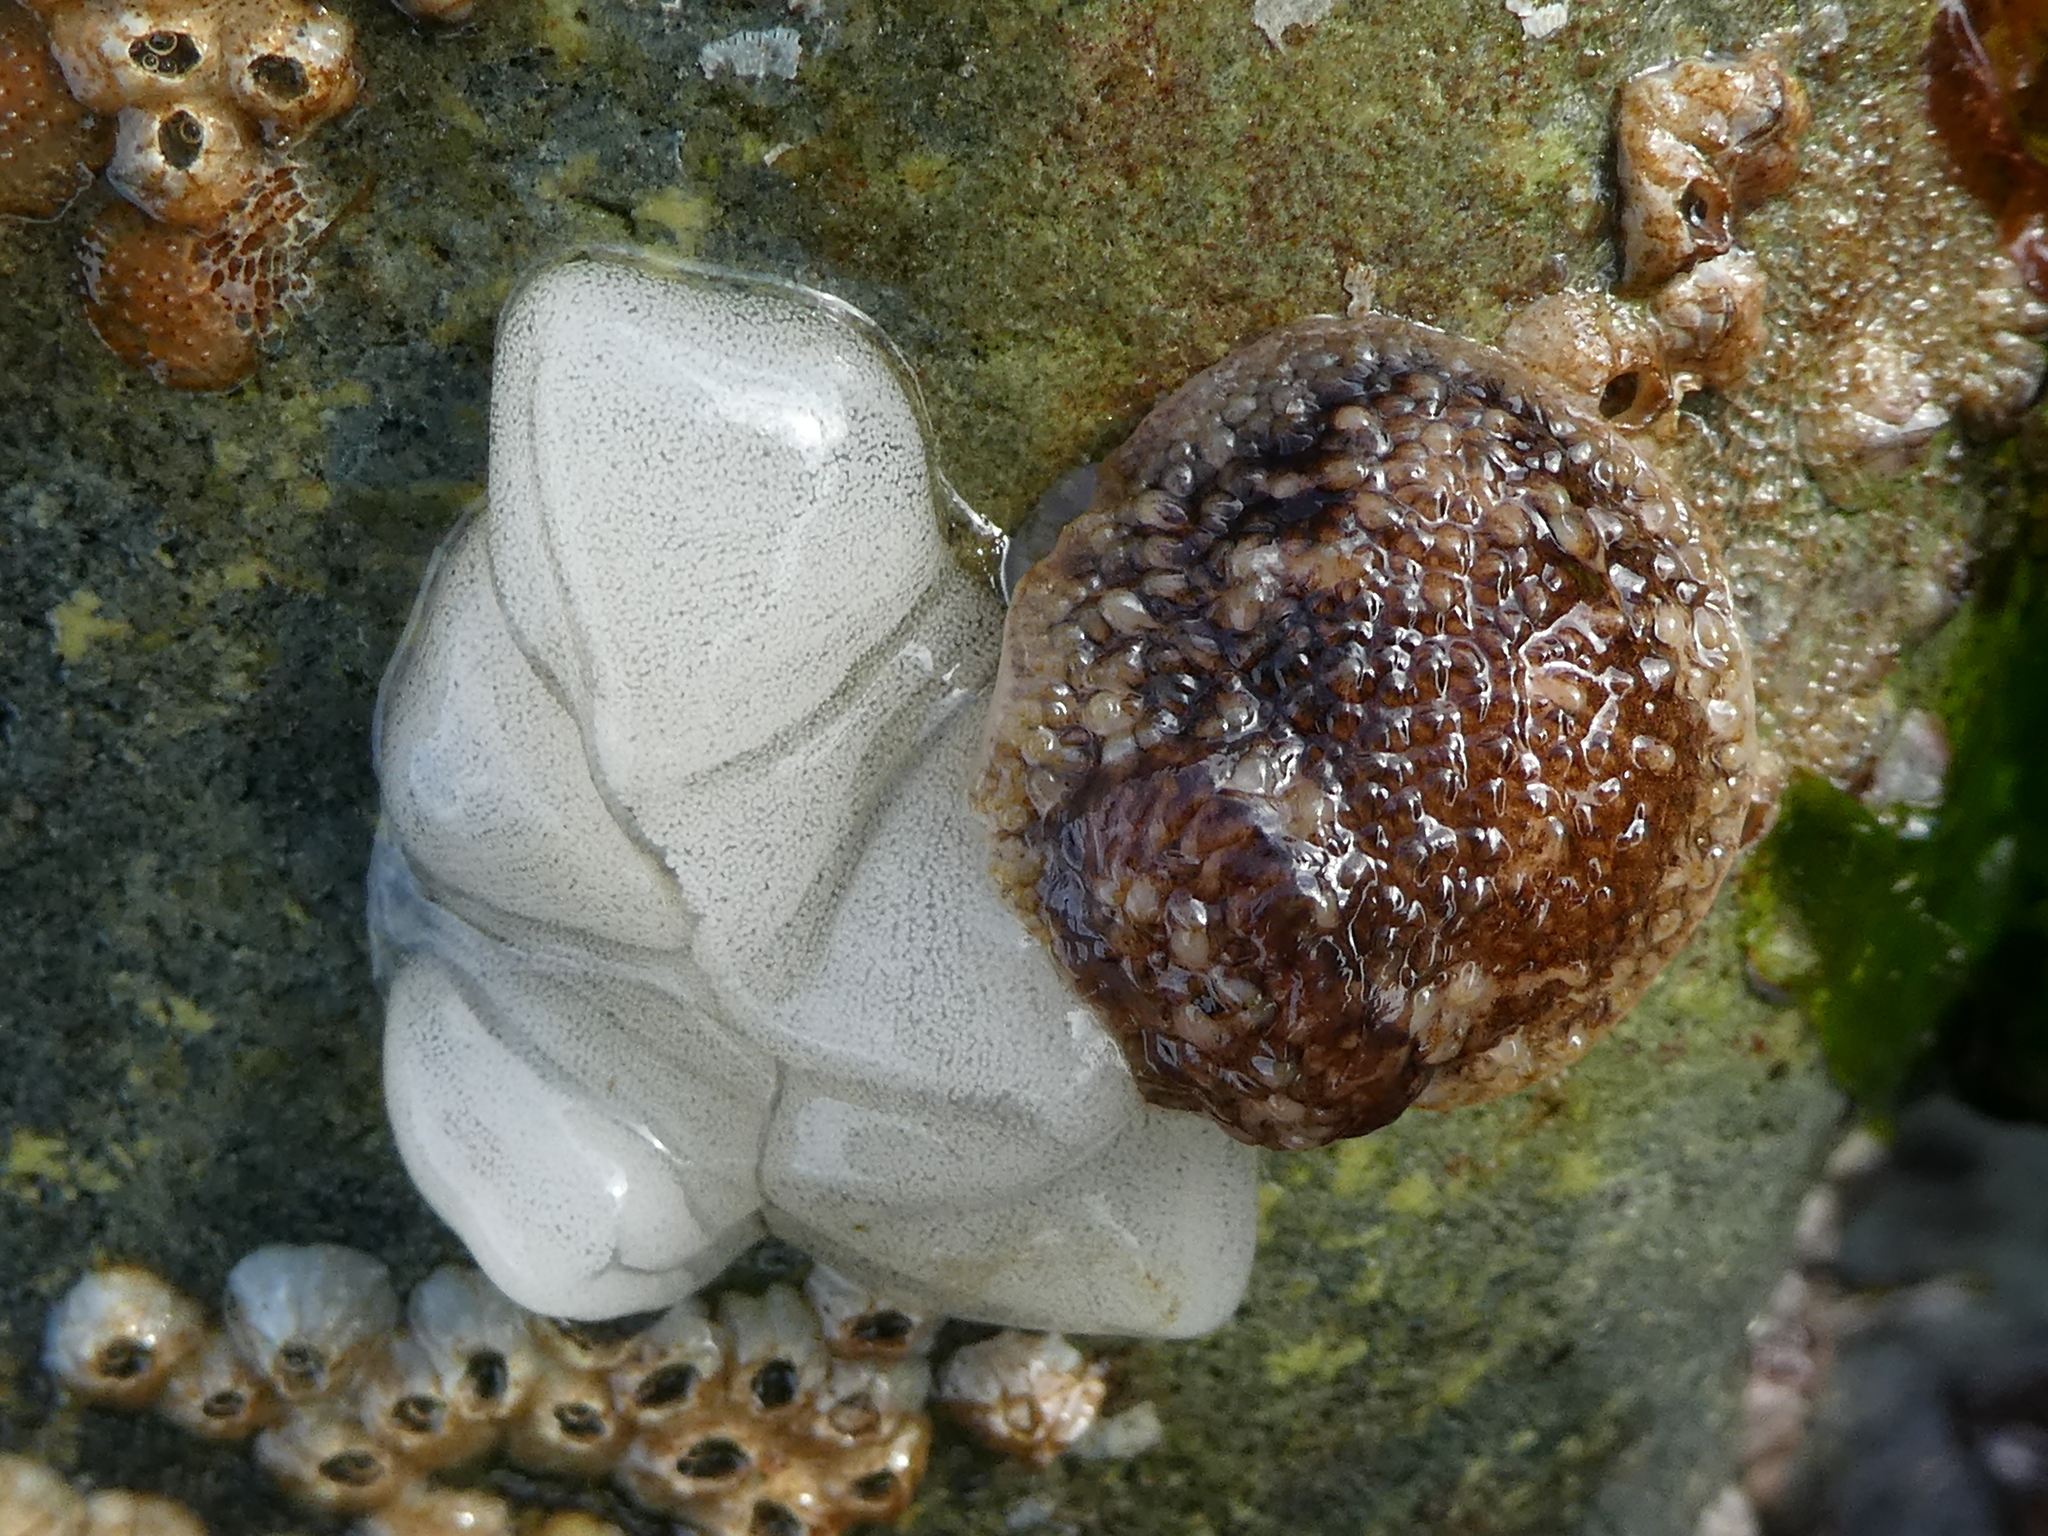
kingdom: Animalia
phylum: Mollusca
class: Gastropoda
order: Nudibranchia
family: Onchidorididae
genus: Onchidoris
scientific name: Onchidoris bilamellata
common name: Barnacle-eating onchidoris
